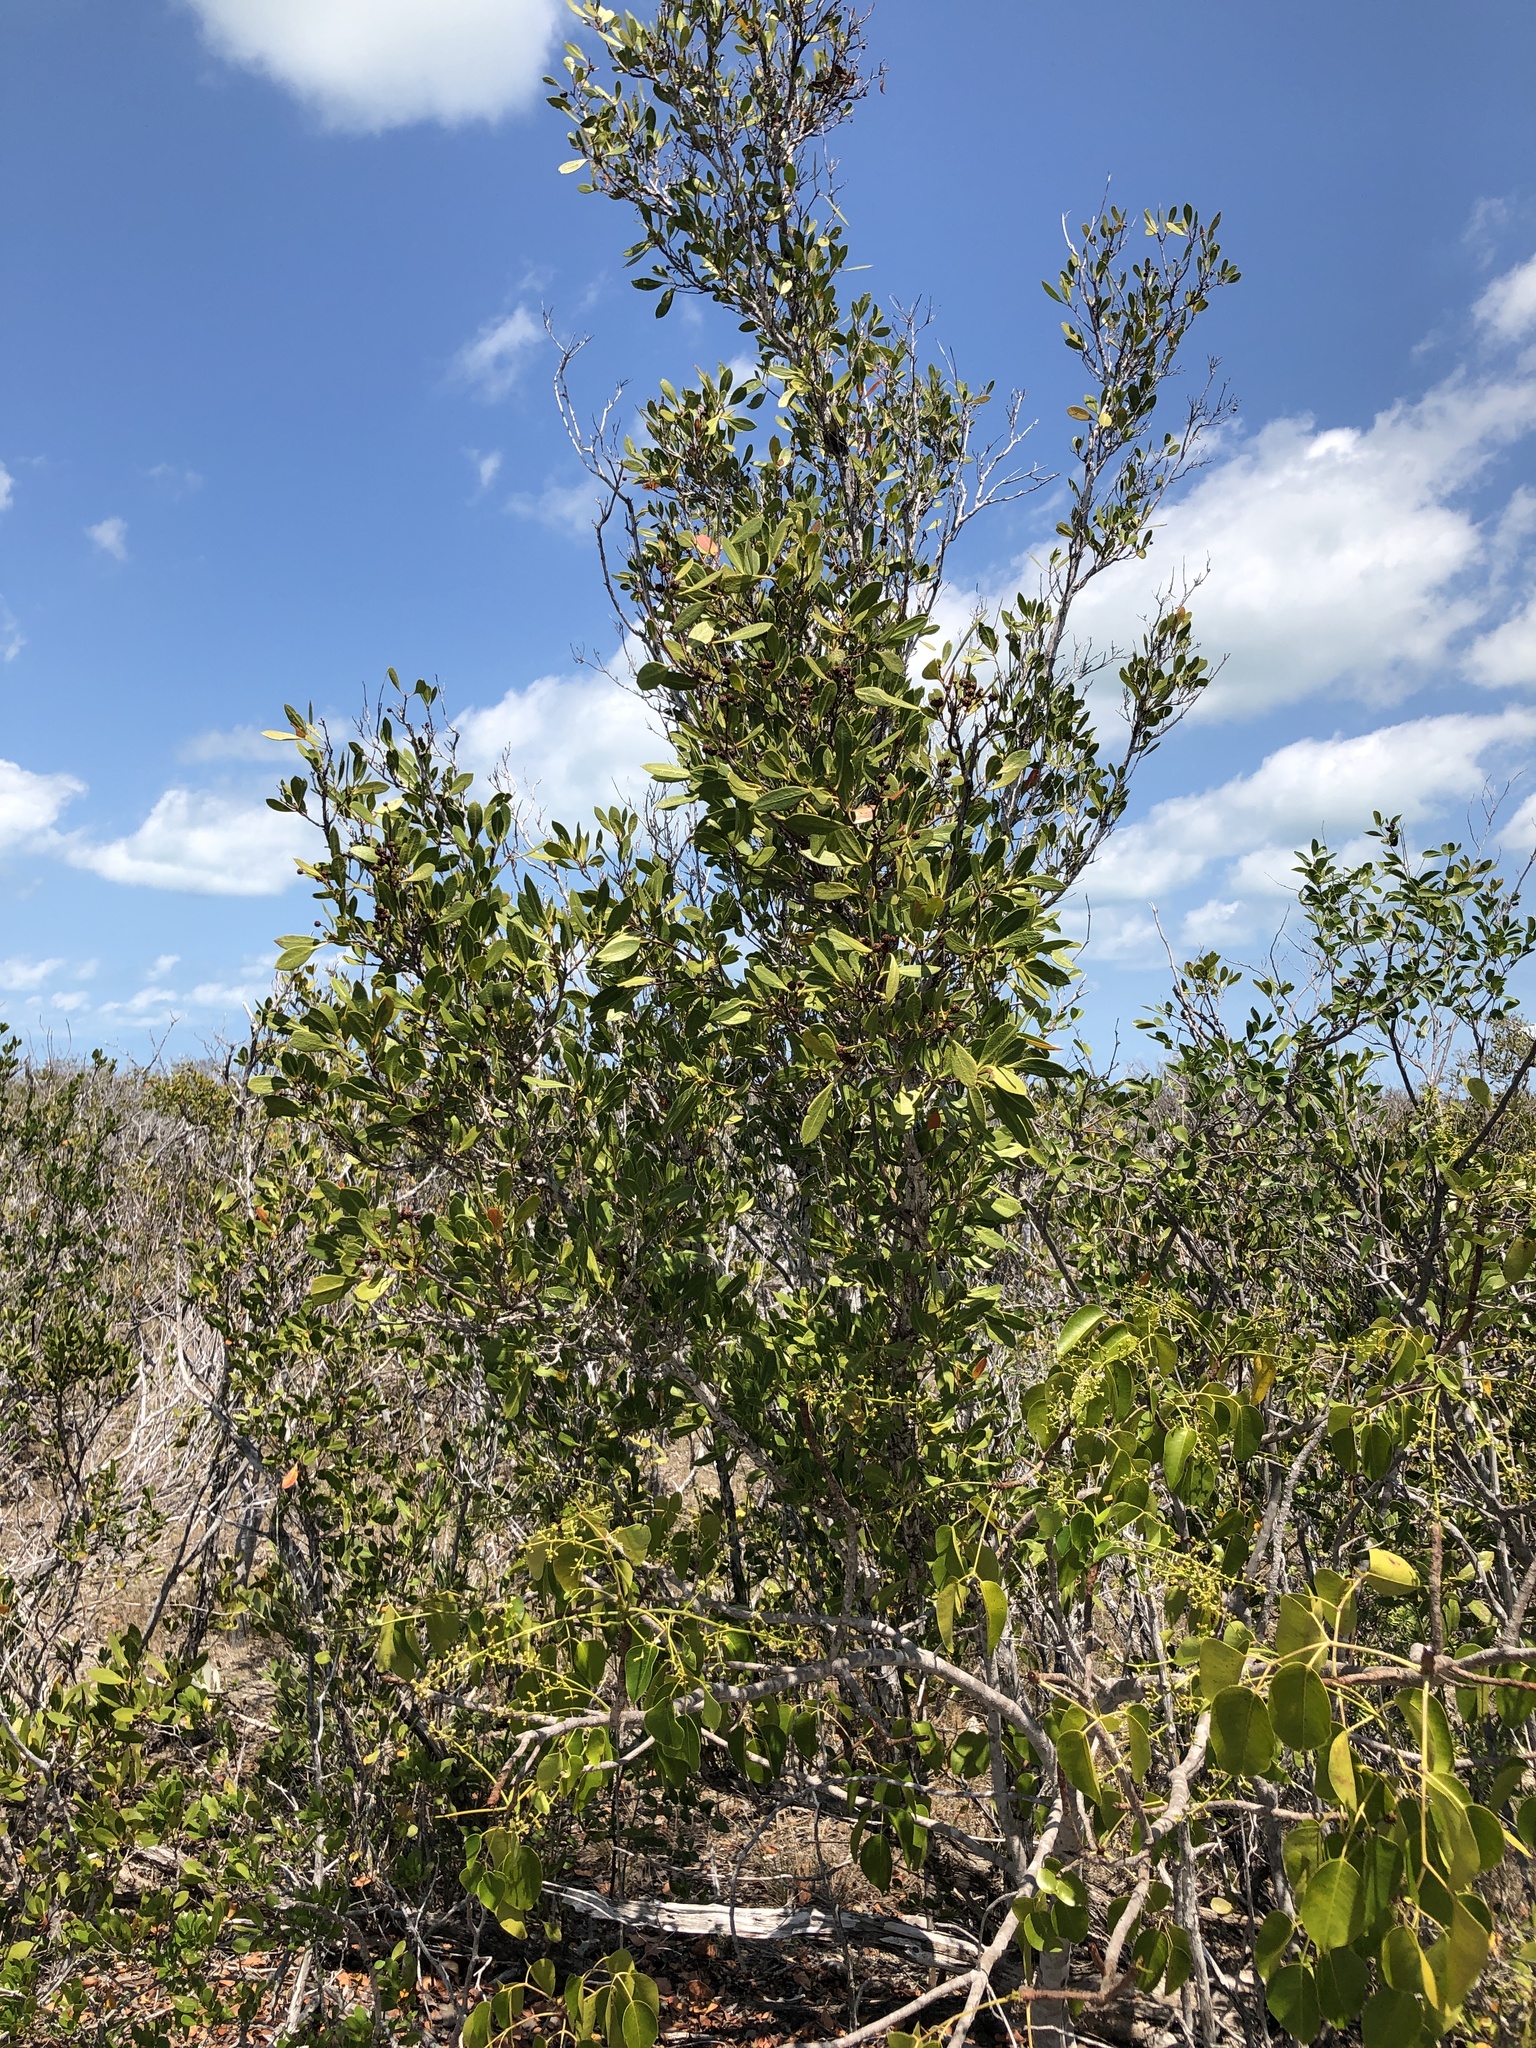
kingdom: Plantae
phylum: Tracheophyta
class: Magnoliopsida
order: Myrtales
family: Combretaceae
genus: Conocarpus
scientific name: Conocarpus erectus
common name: Button mangrove
